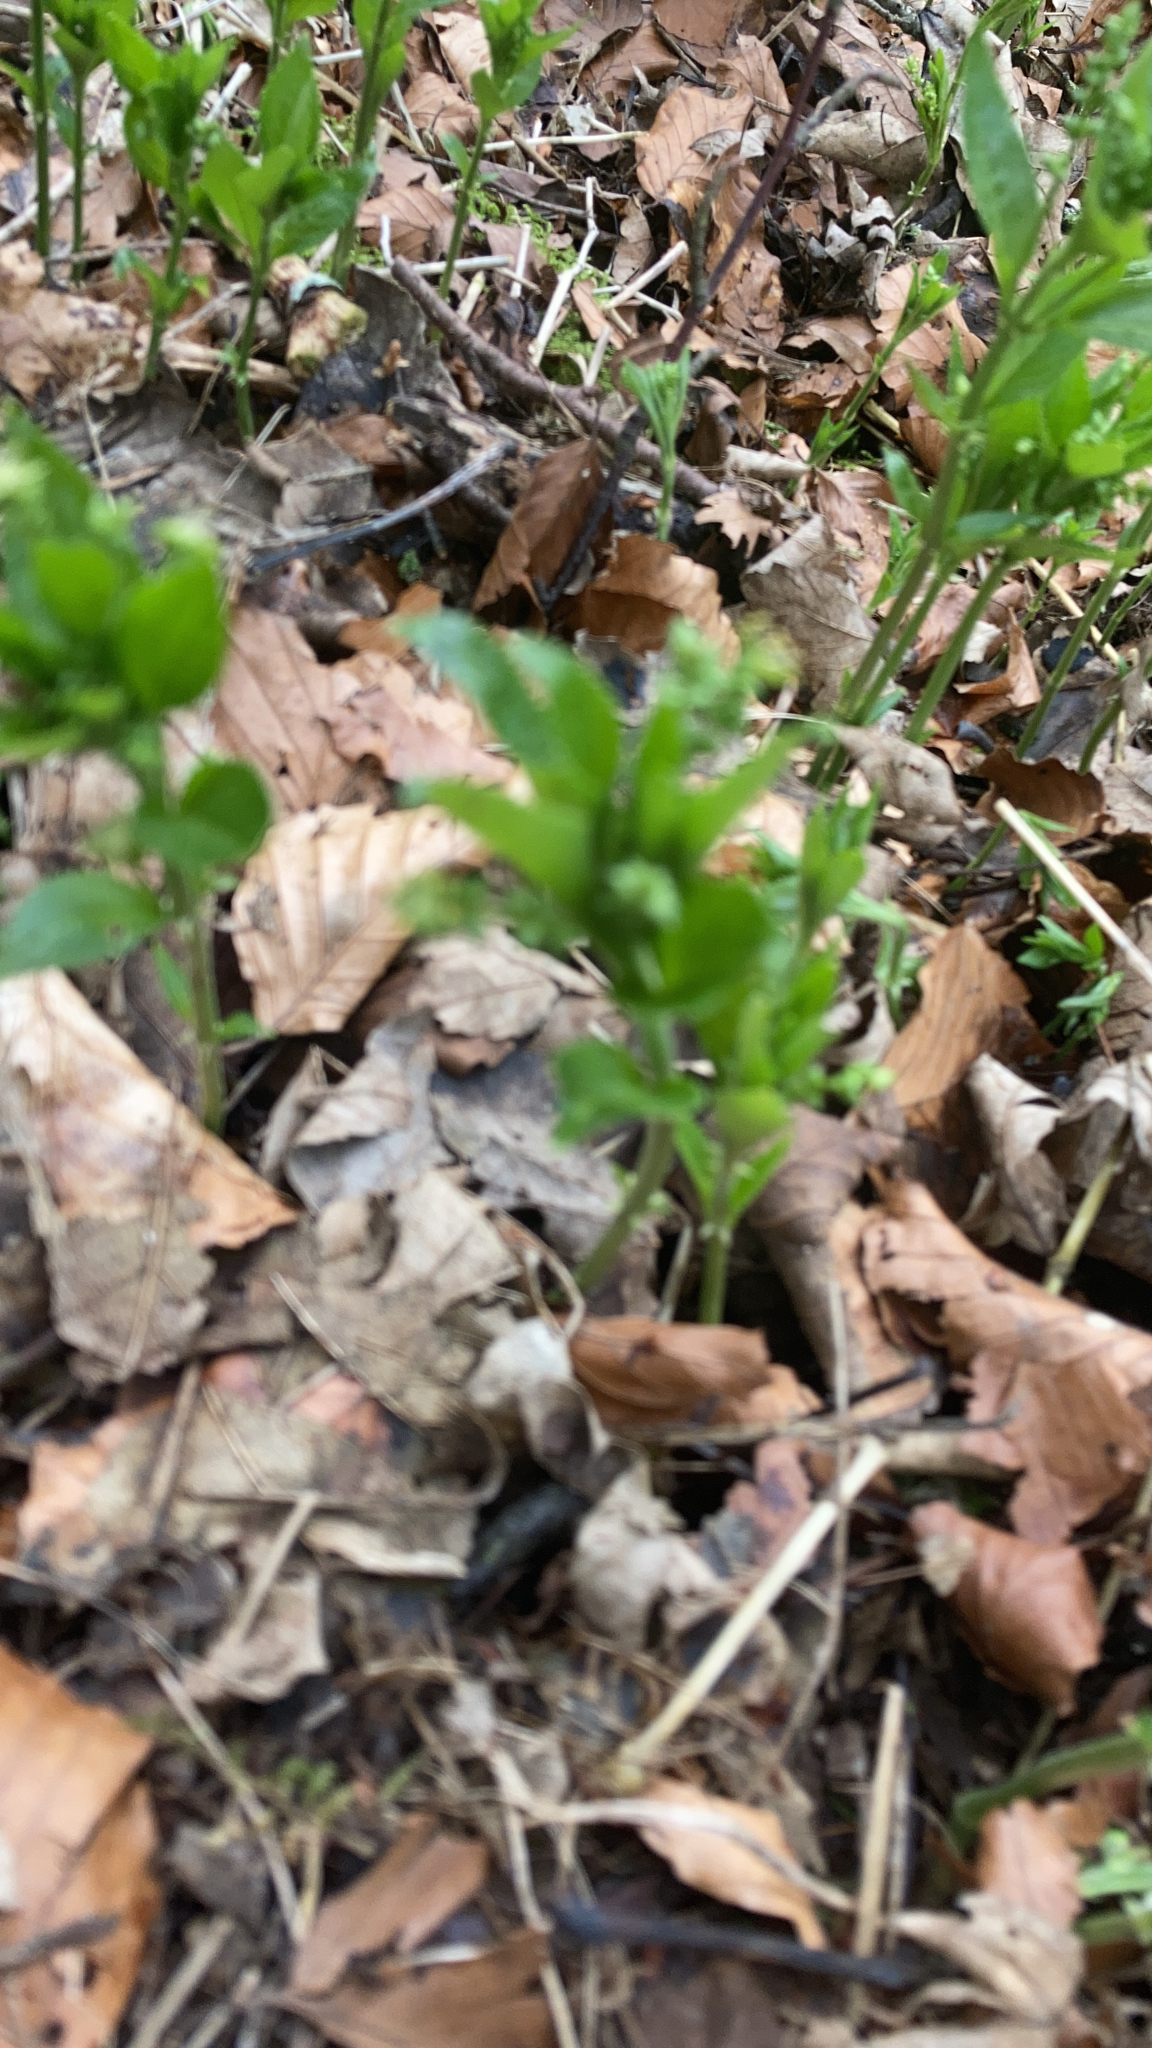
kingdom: Plantae
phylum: Tracheophyta
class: Magnoliopsida
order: Malpighiales
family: Euphorbiaceae
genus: Mercurialis
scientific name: Mercurialis perennis
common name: Dog mercury
